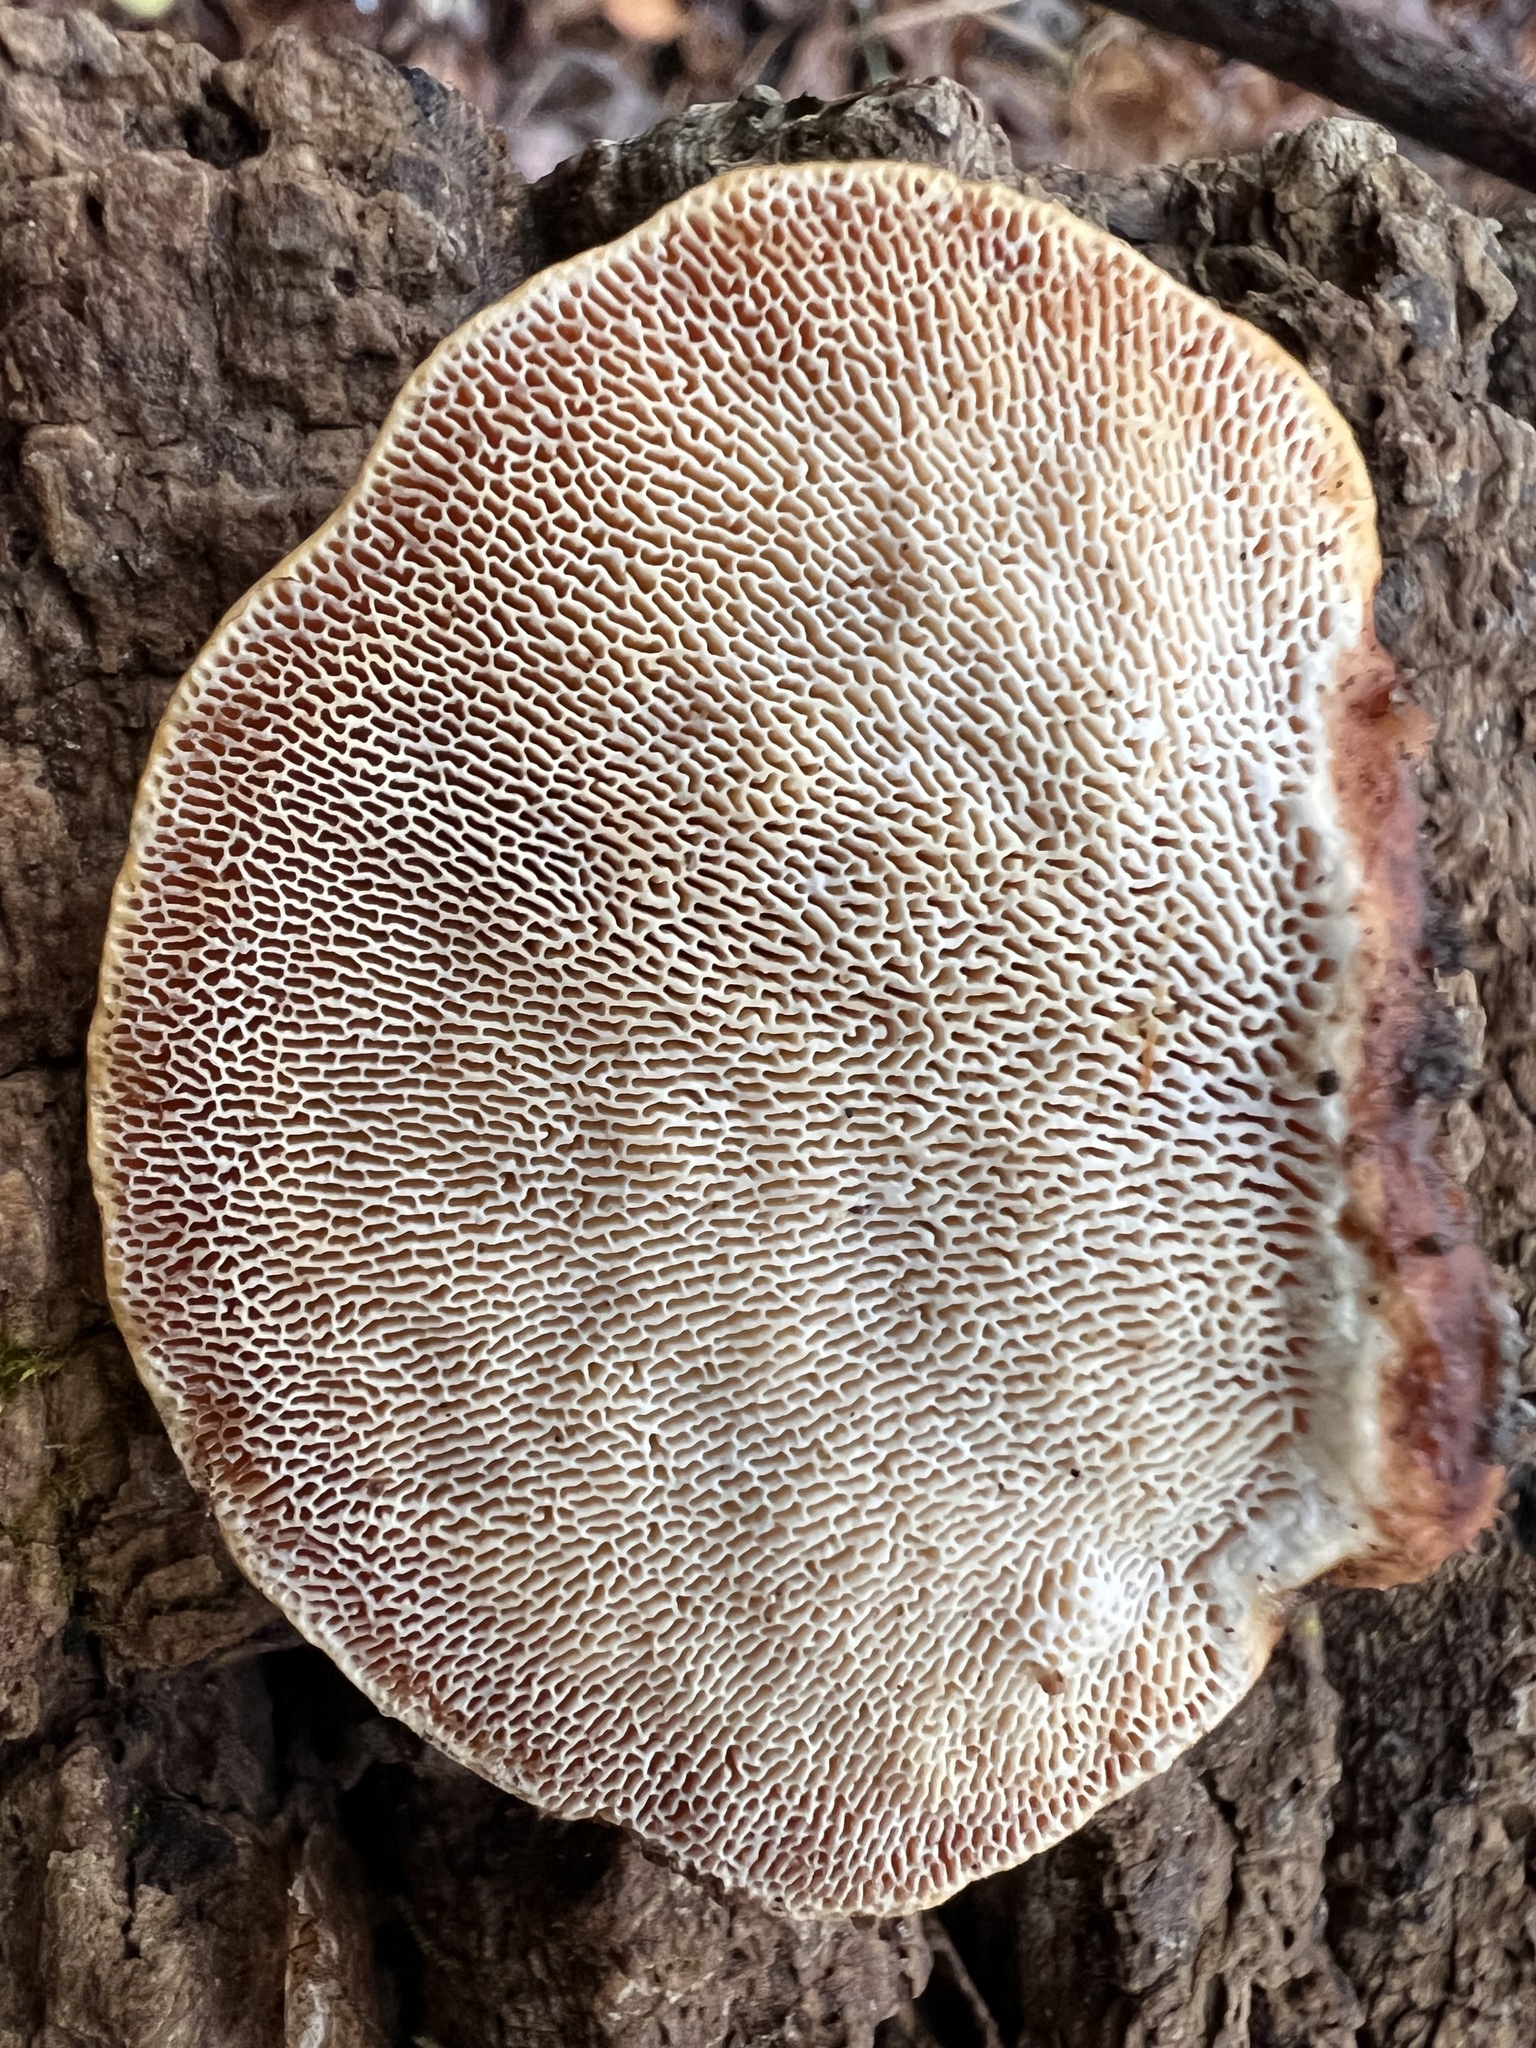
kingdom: Fungi
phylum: Basidiomycota
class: Agaricomycetes
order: Polyporales
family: Polyporaceae
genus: Trametes
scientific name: Trametes gibbosa
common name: Lumpy bracket
